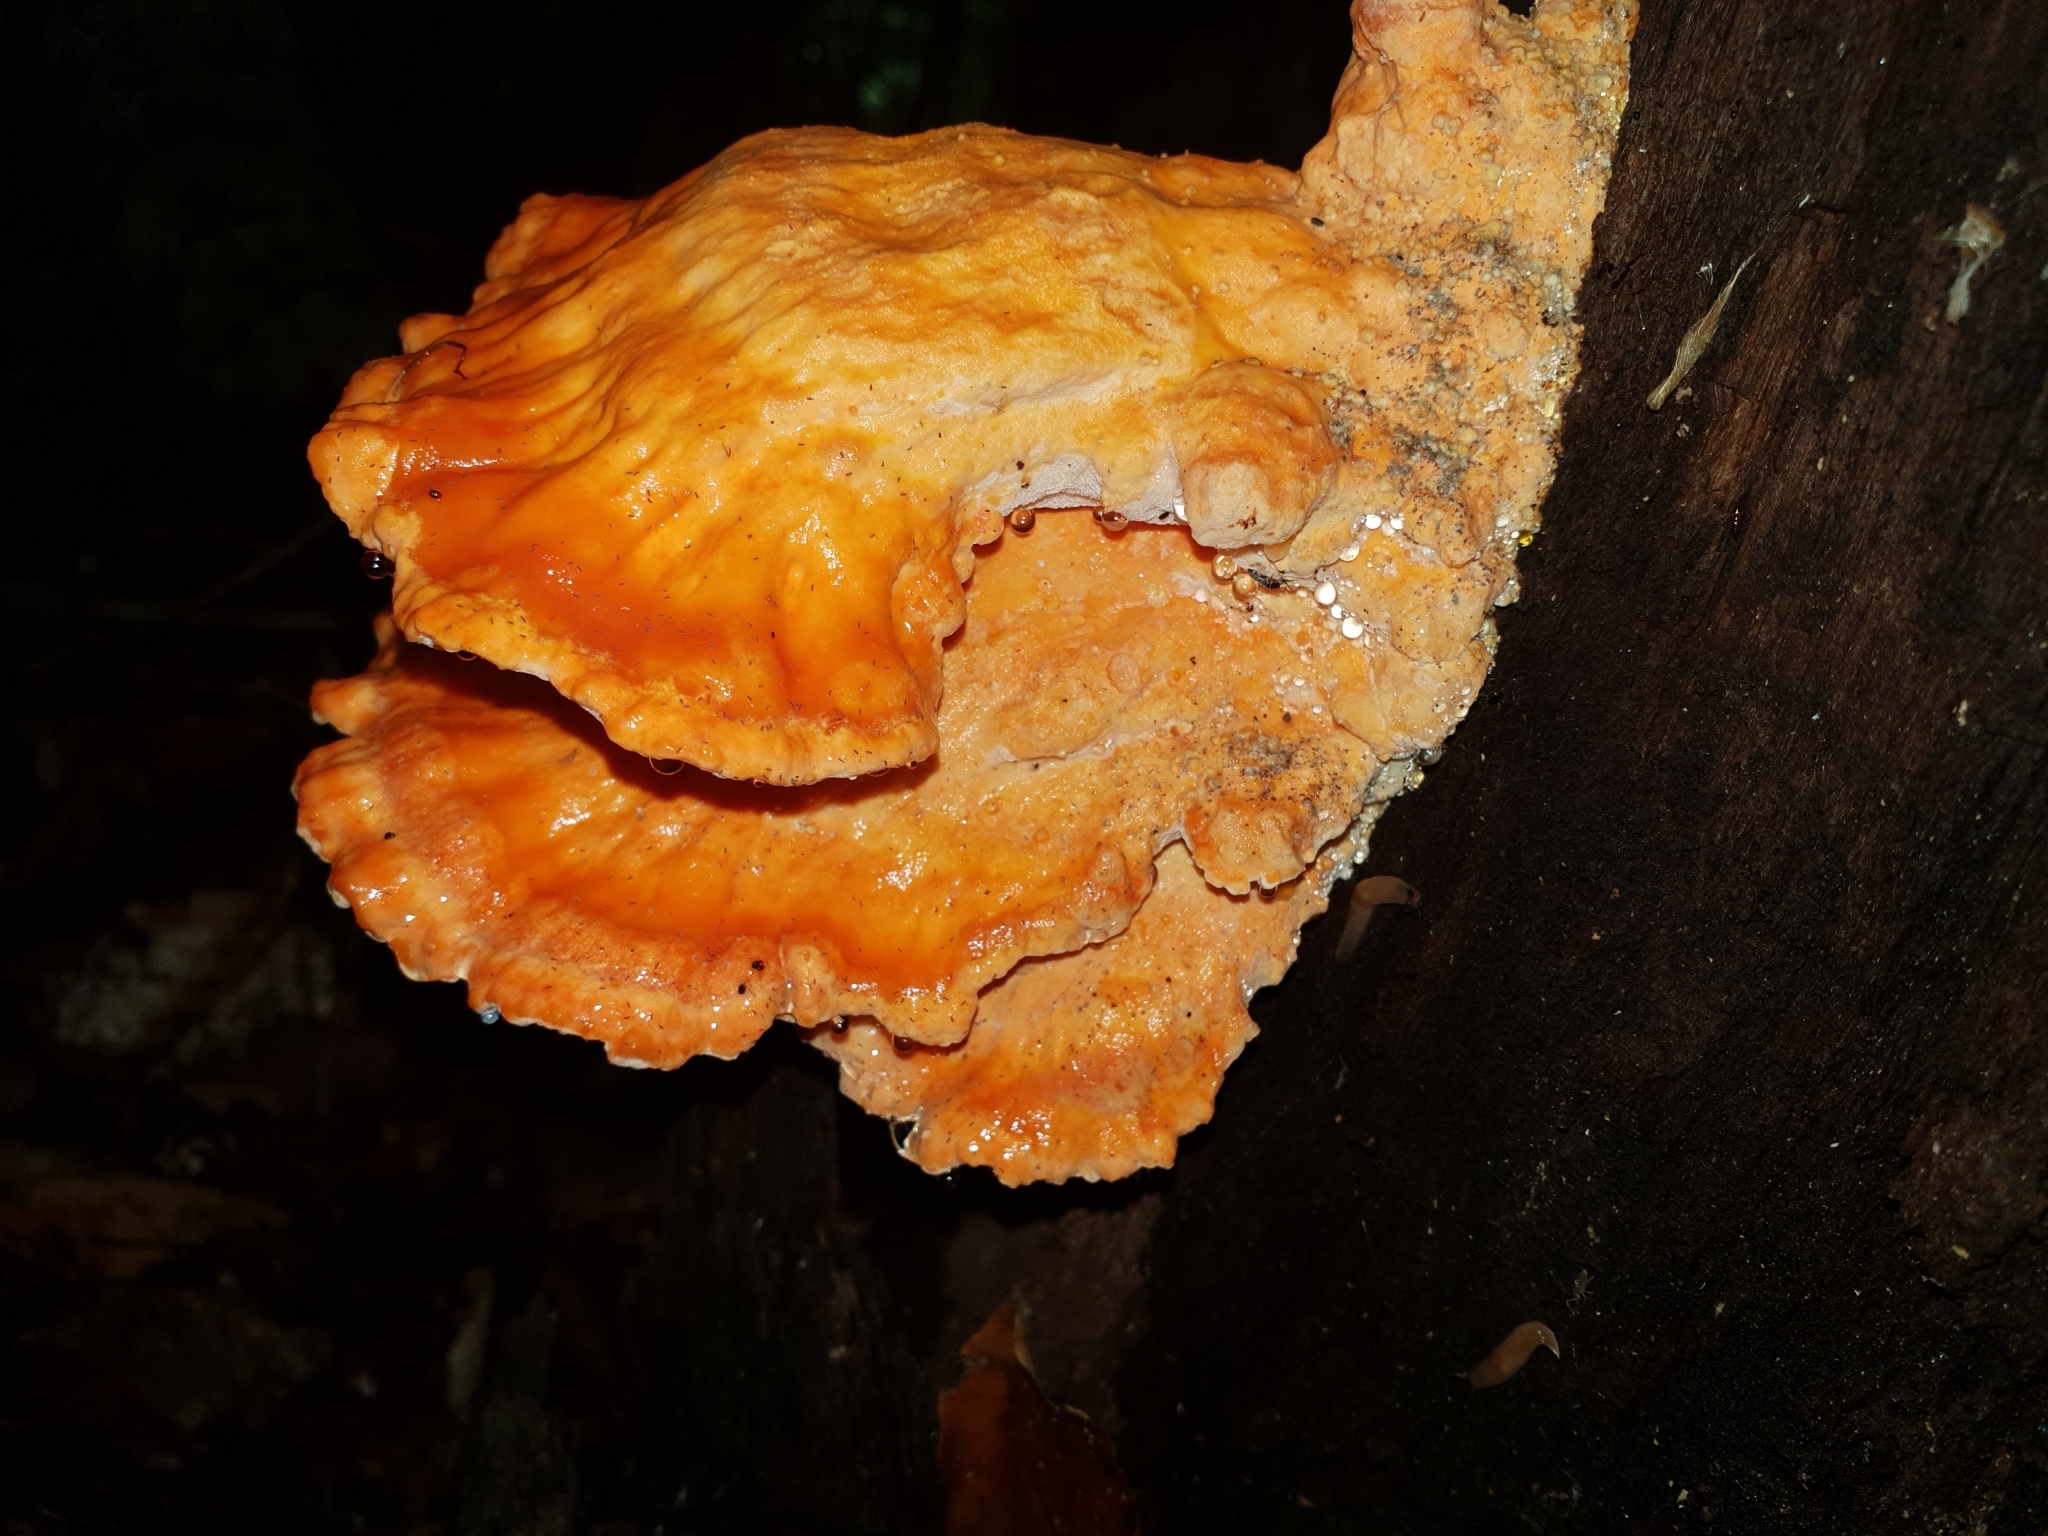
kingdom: Fungi
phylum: Basidiomycota
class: Agaricomycetes
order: Polyporales
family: Laetiporaceae
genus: Laetiporus
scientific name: Laetiporus sulphureus
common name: Chicken of the woods
